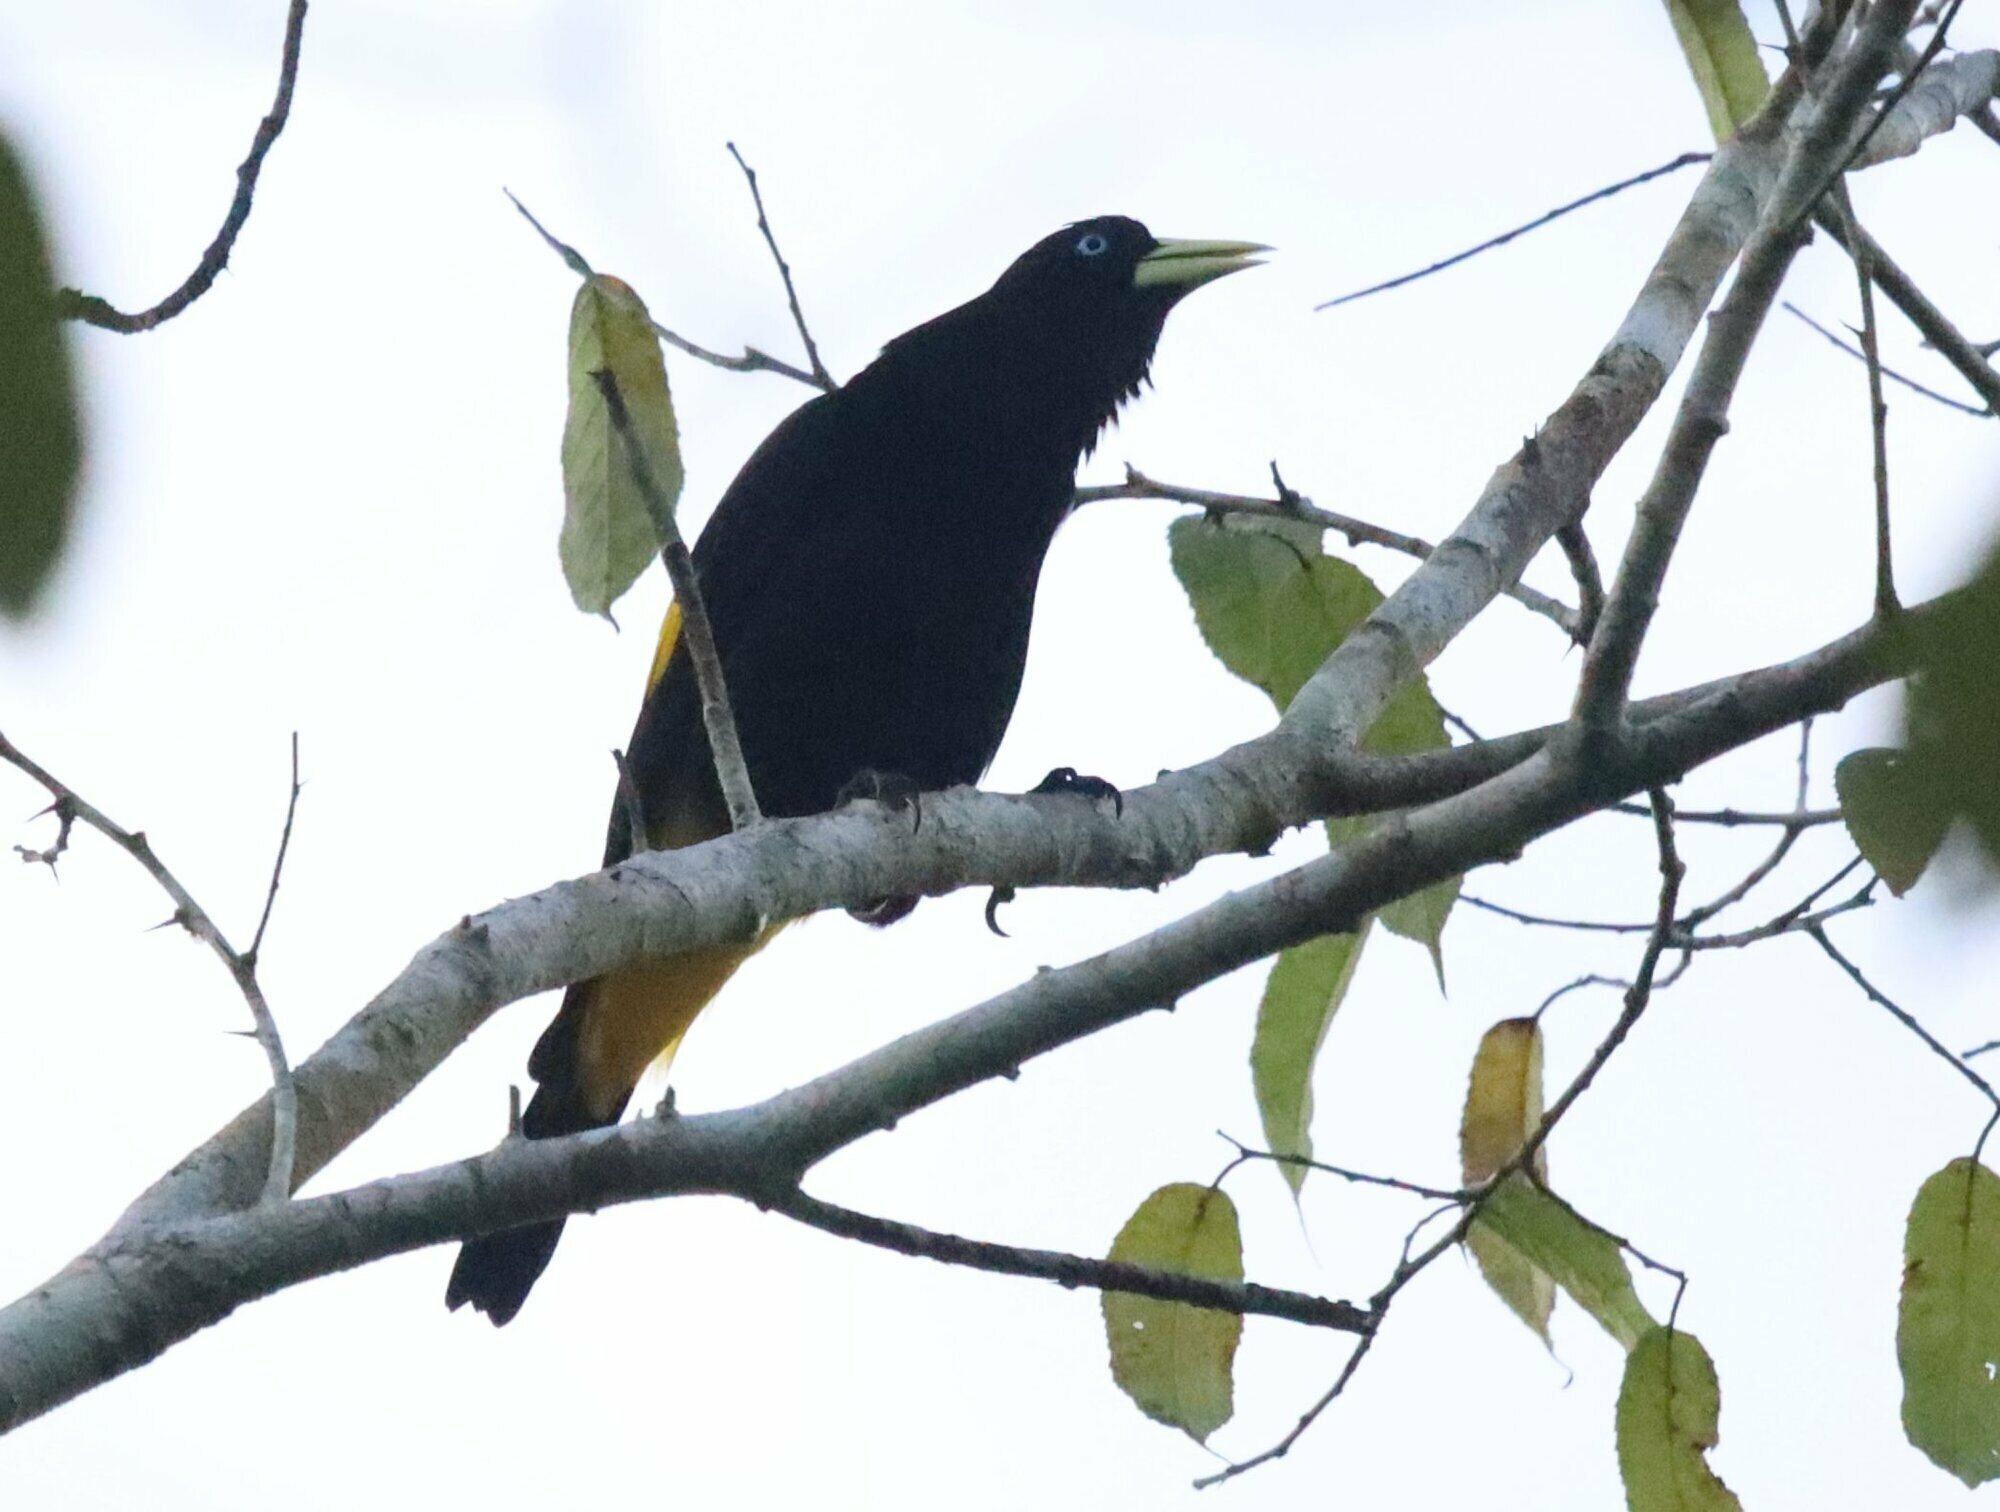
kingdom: Animalia
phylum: Chordata
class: Aves
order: Passeriformes
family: Icteridae
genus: Cacicus
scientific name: Cacicus cela
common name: Yellow-rumped cacique
